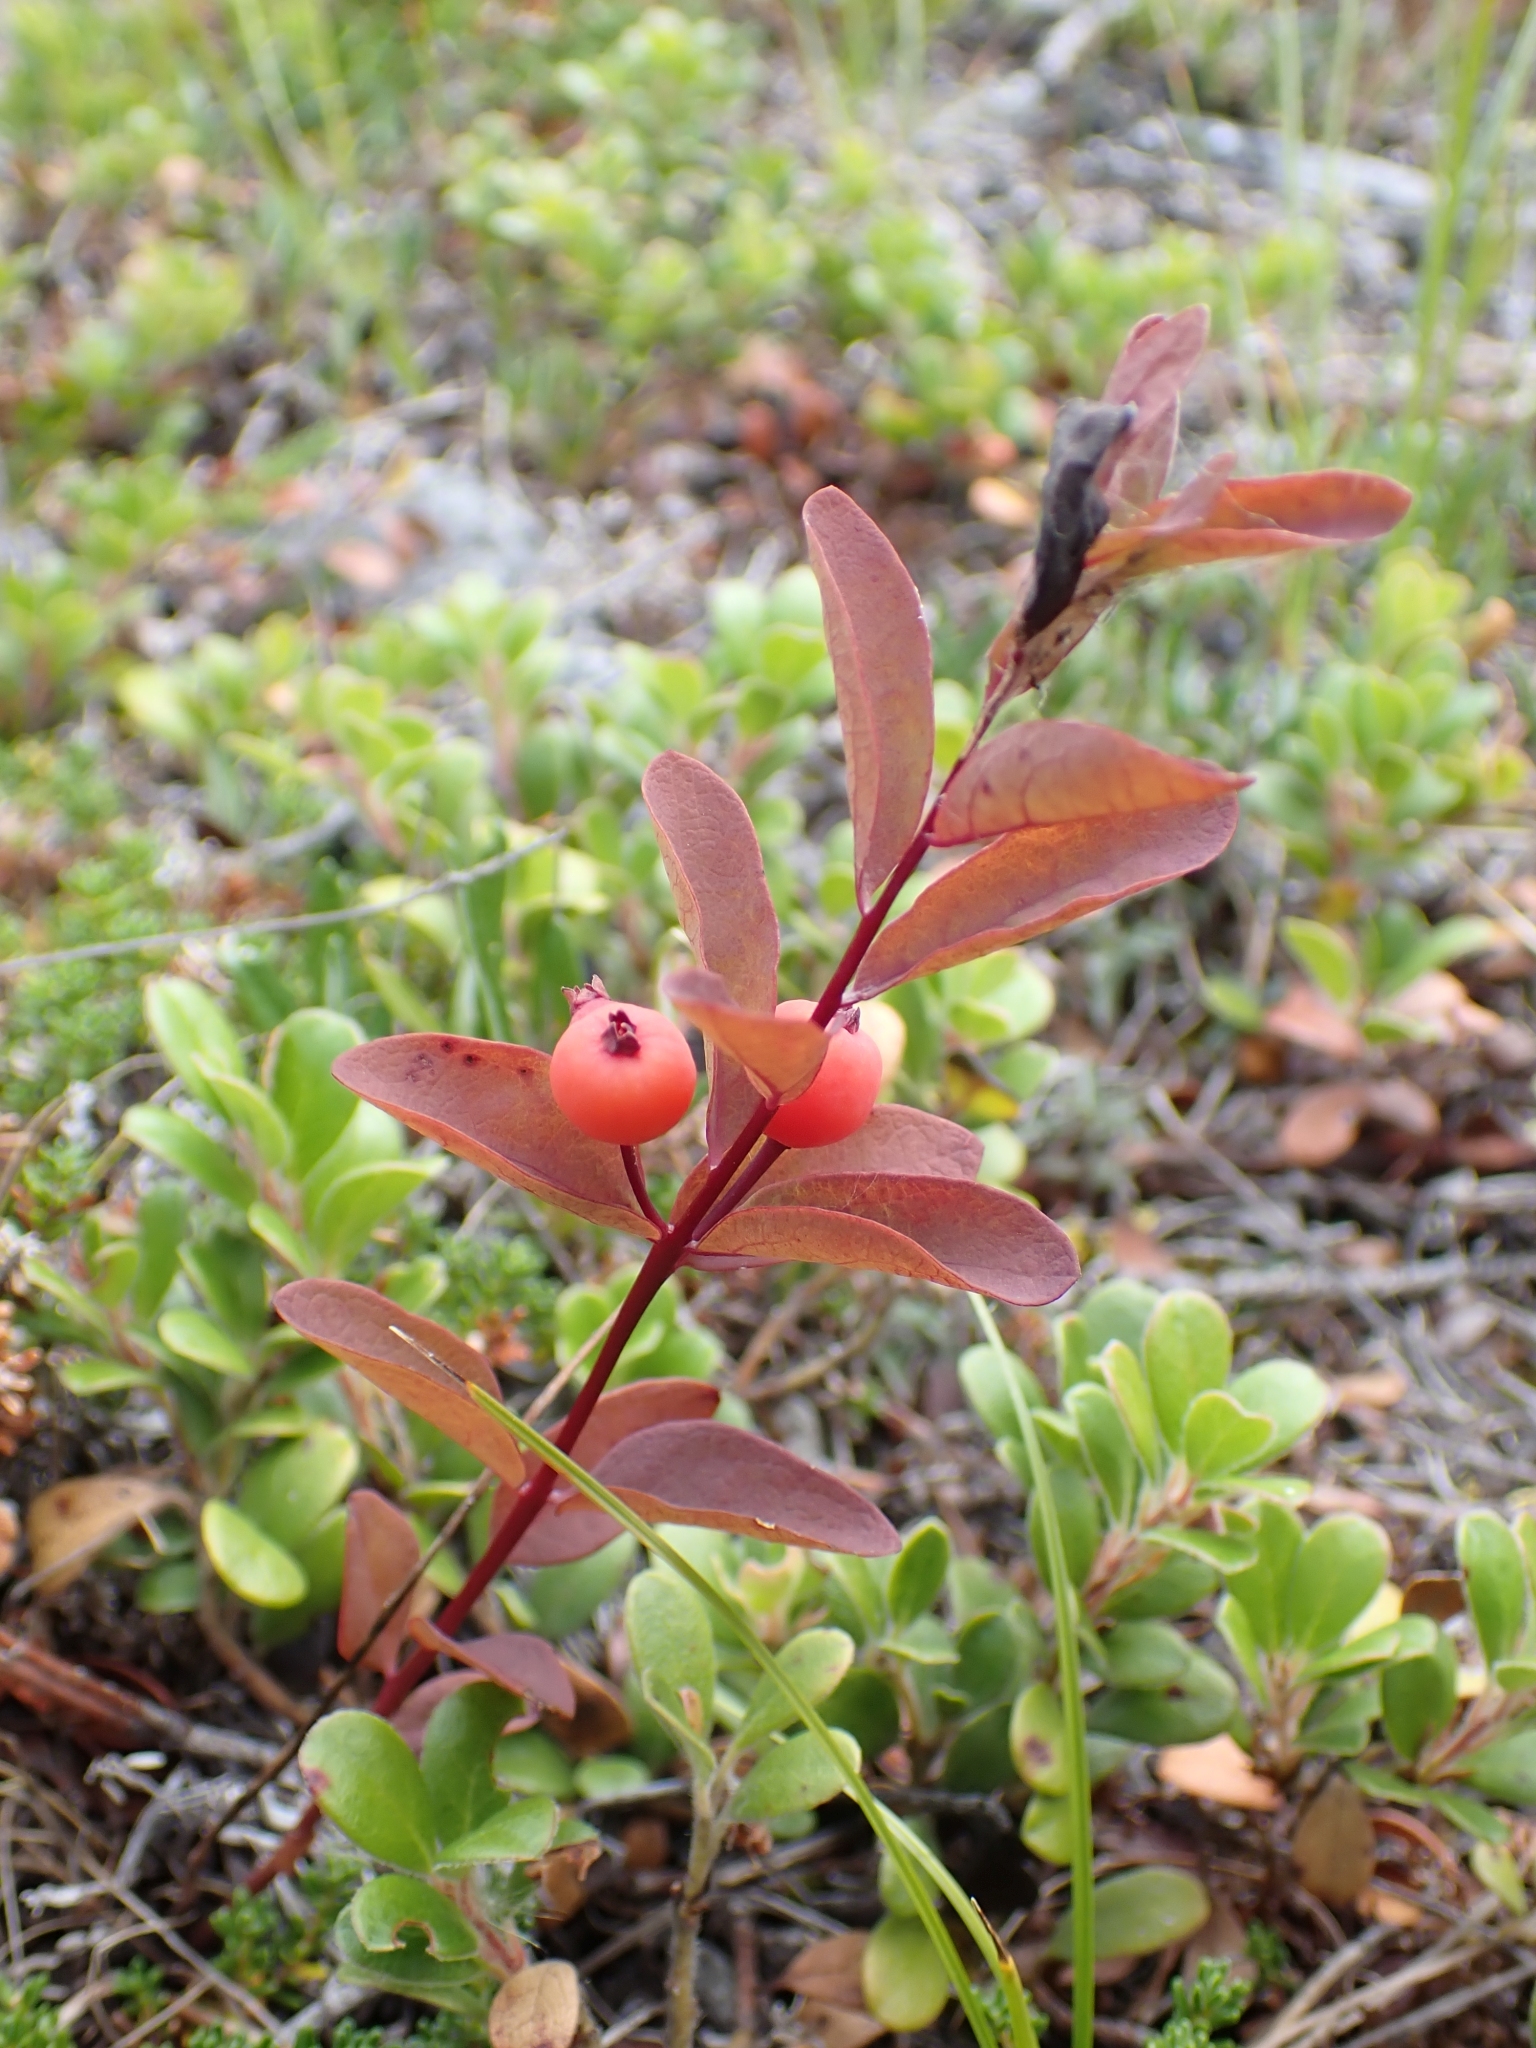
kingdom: Plantae
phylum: Tracheophyta
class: Magnoliopsida
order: Santalales
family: Comandraceae
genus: Geocaulon
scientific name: Geocaulon lividum
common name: Earthberry
